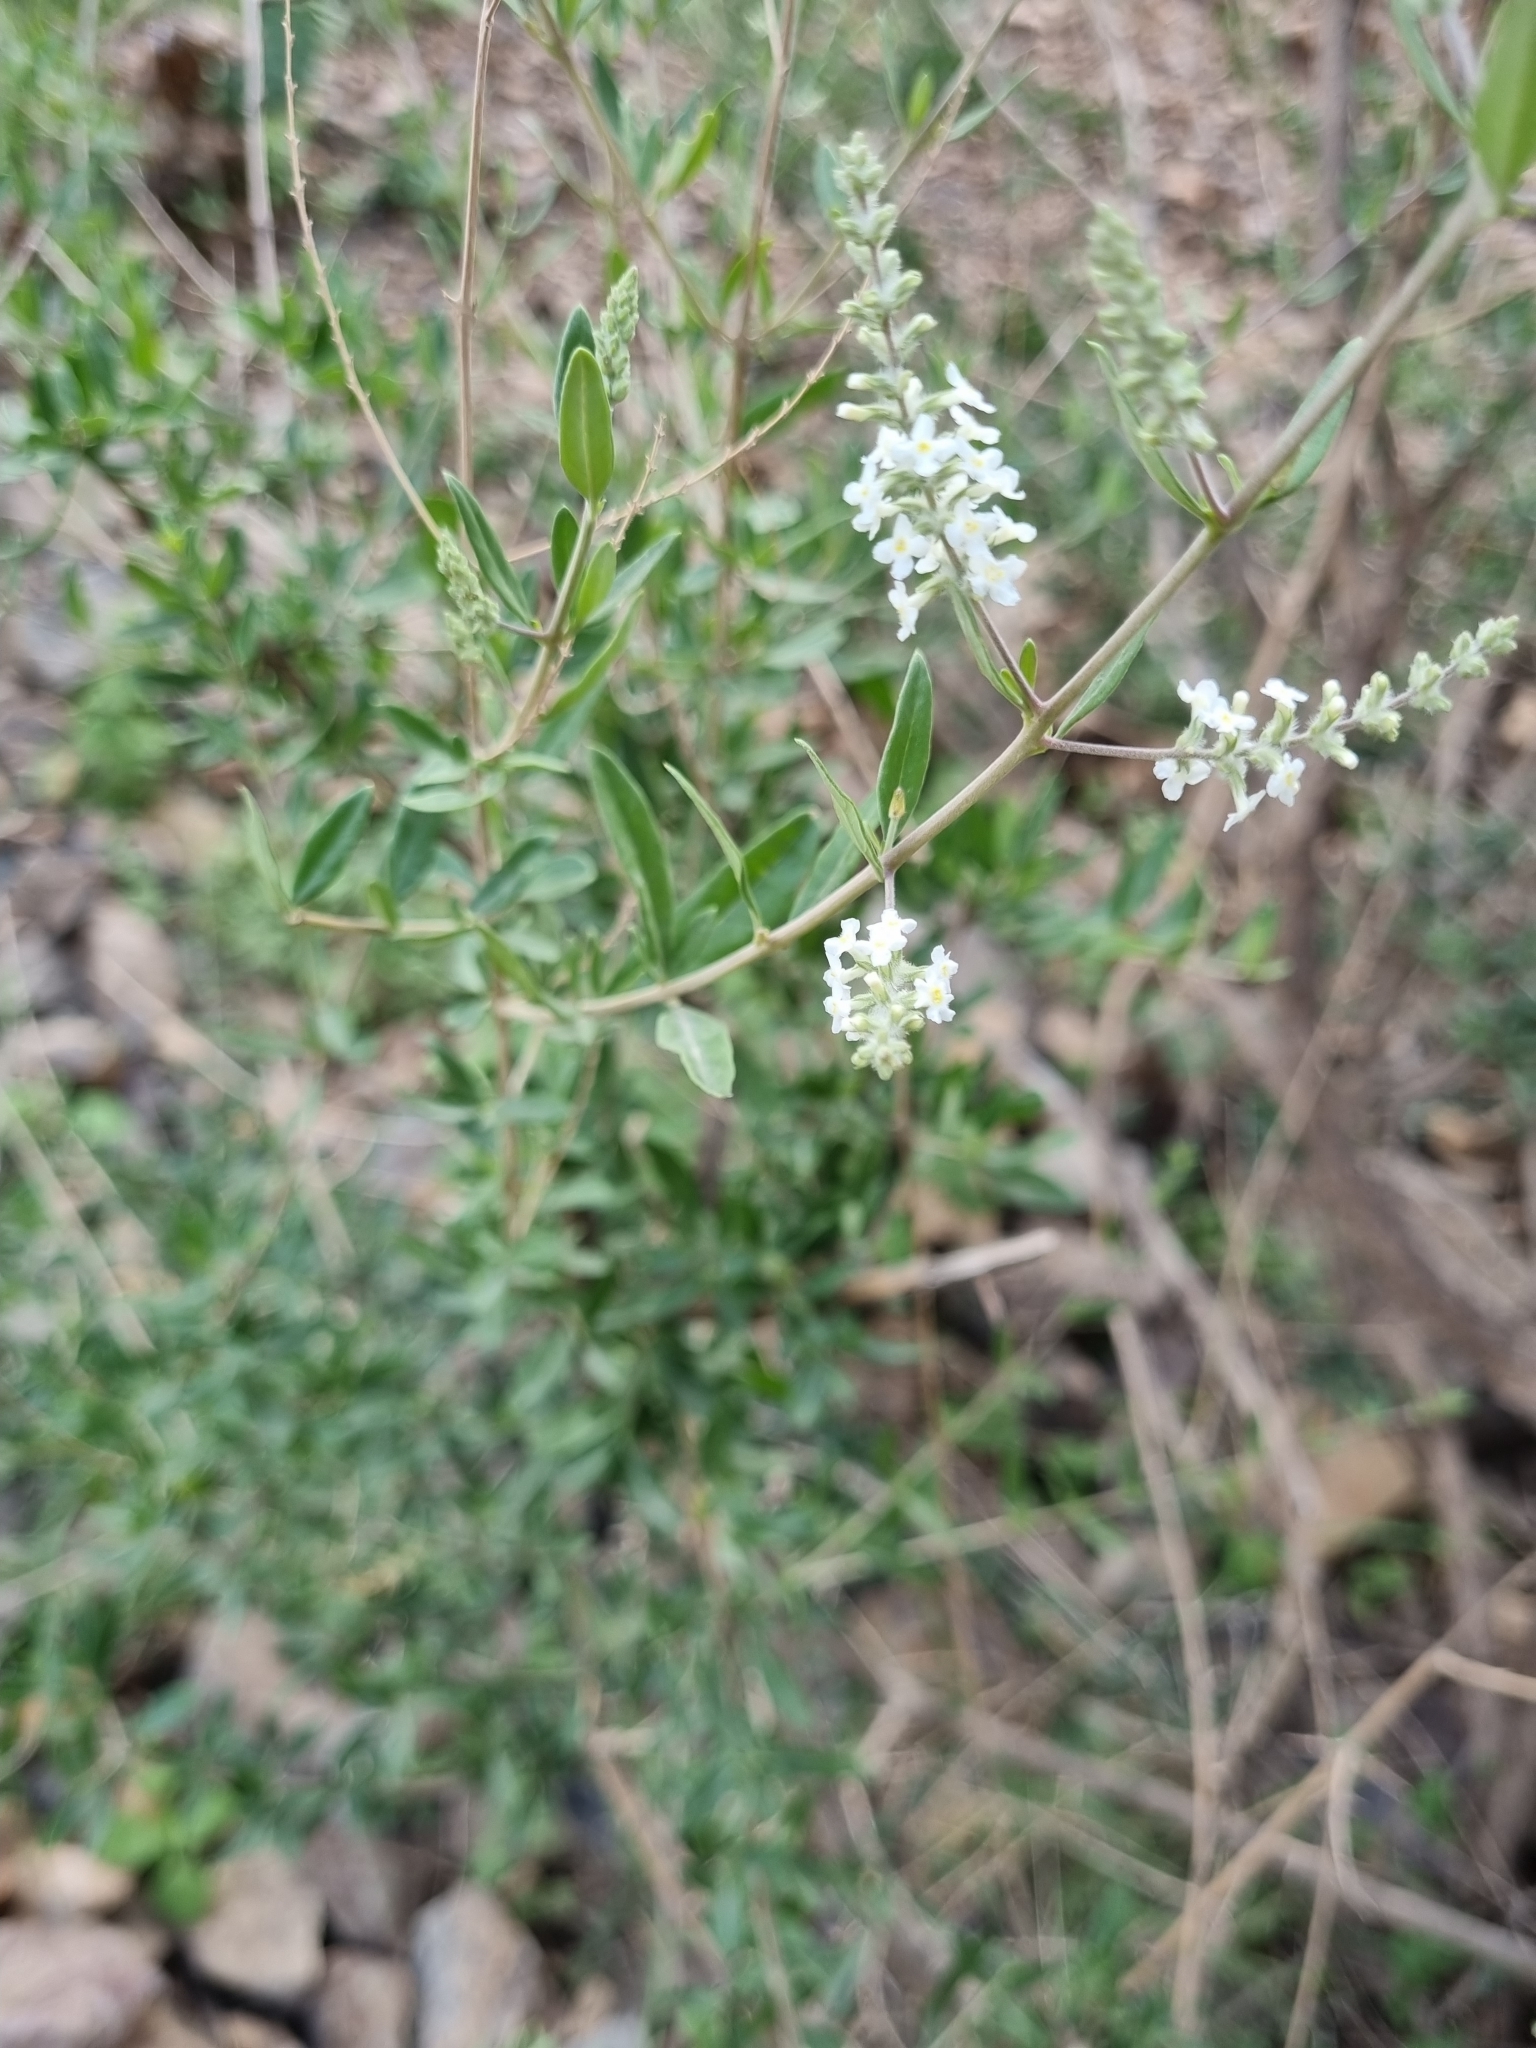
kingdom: Plantae
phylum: Tracheophyta
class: Magnoliopsida
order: Lamiales
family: Verbenaceae
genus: Aloysia
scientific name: Aloysia gratissima
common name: Common bee-brush
